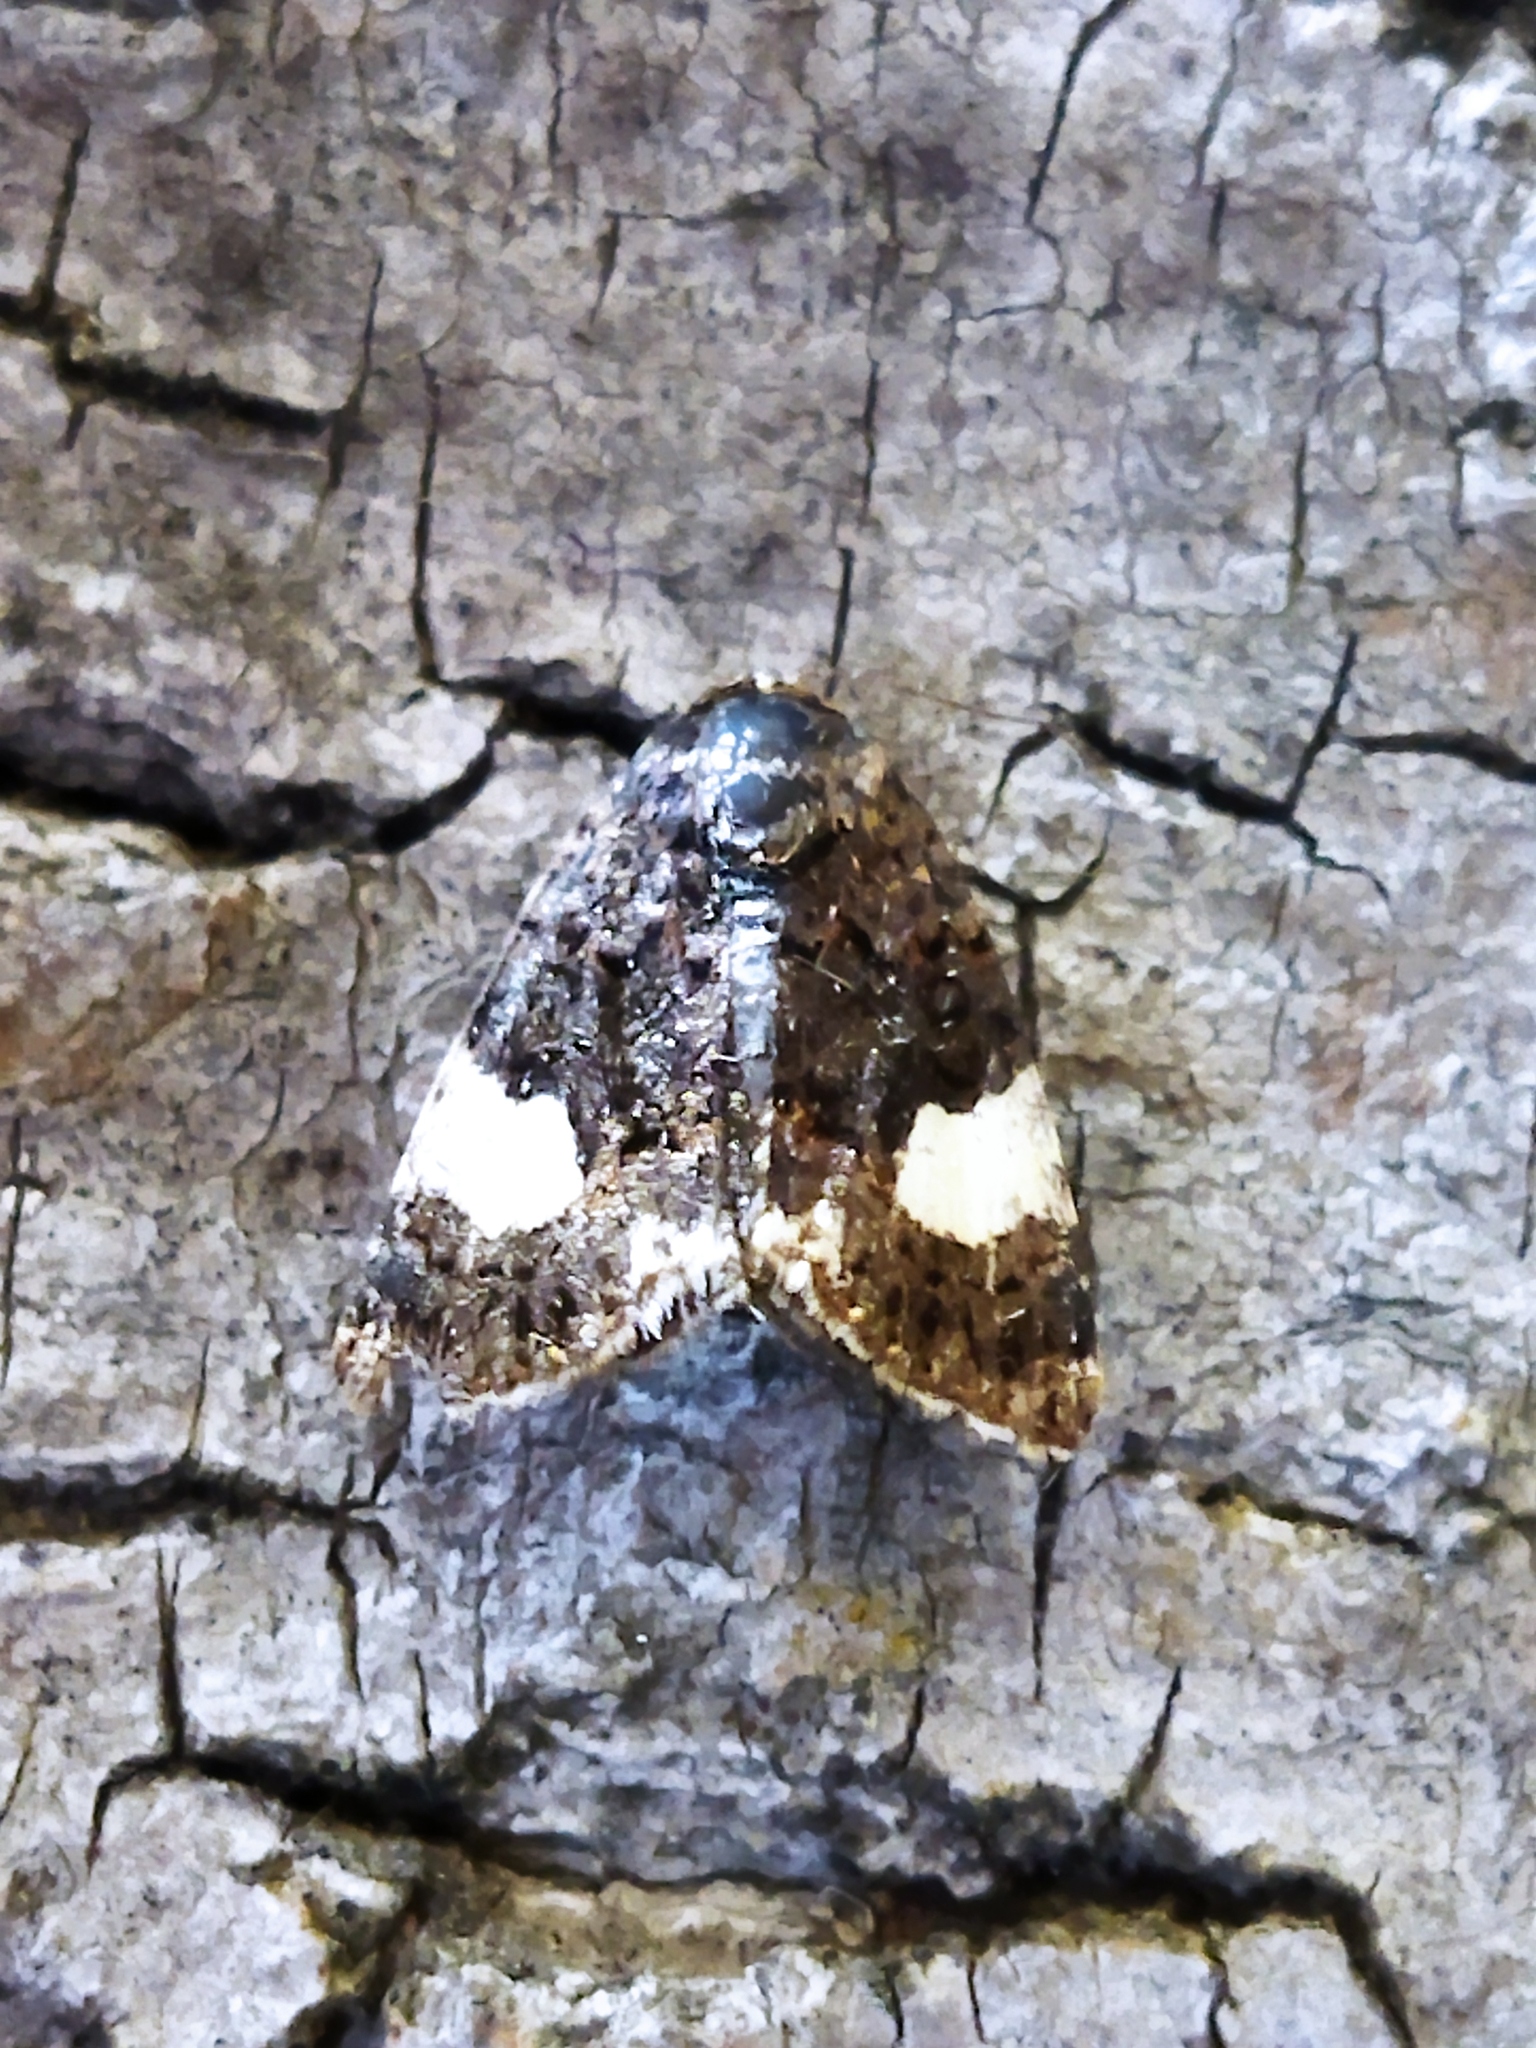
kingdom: Animalia
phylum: Arthropoda
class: Insecta
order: Lepidoptera
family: Erebidae
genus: Tyta
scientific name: Tyta luctuosa
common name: Four-spotted
